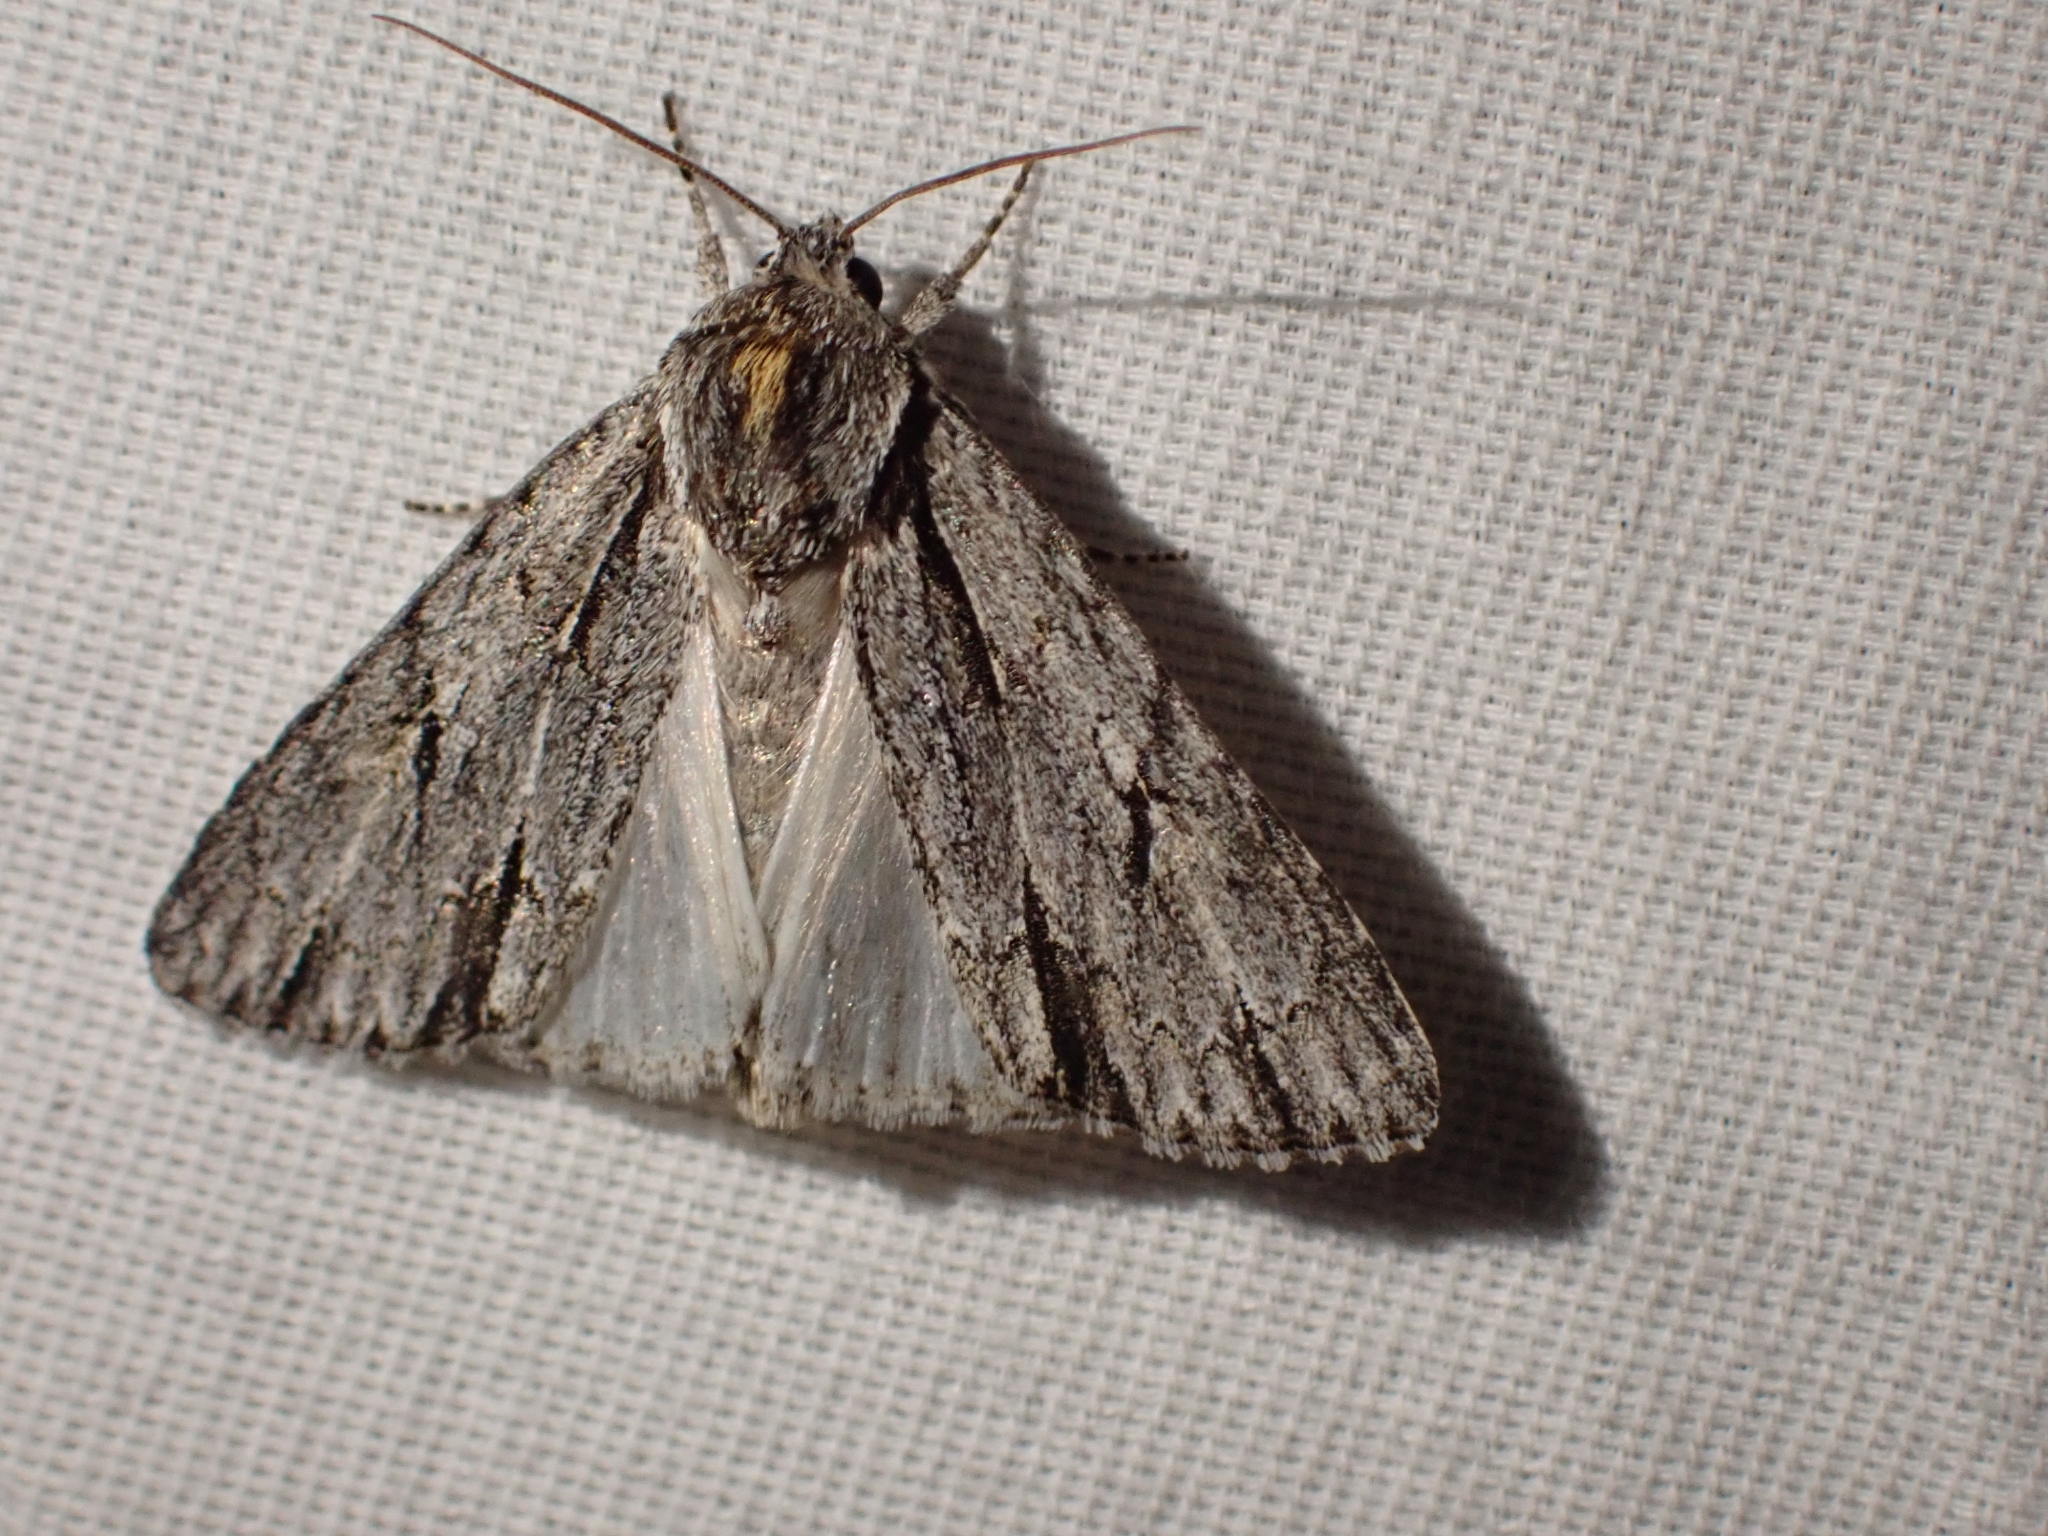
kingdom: Animalia
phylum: Arthropoda
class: Insecta
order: Lepidoptera
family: Noctuidae
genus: Acronicta
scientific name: Acronicta strigulata
